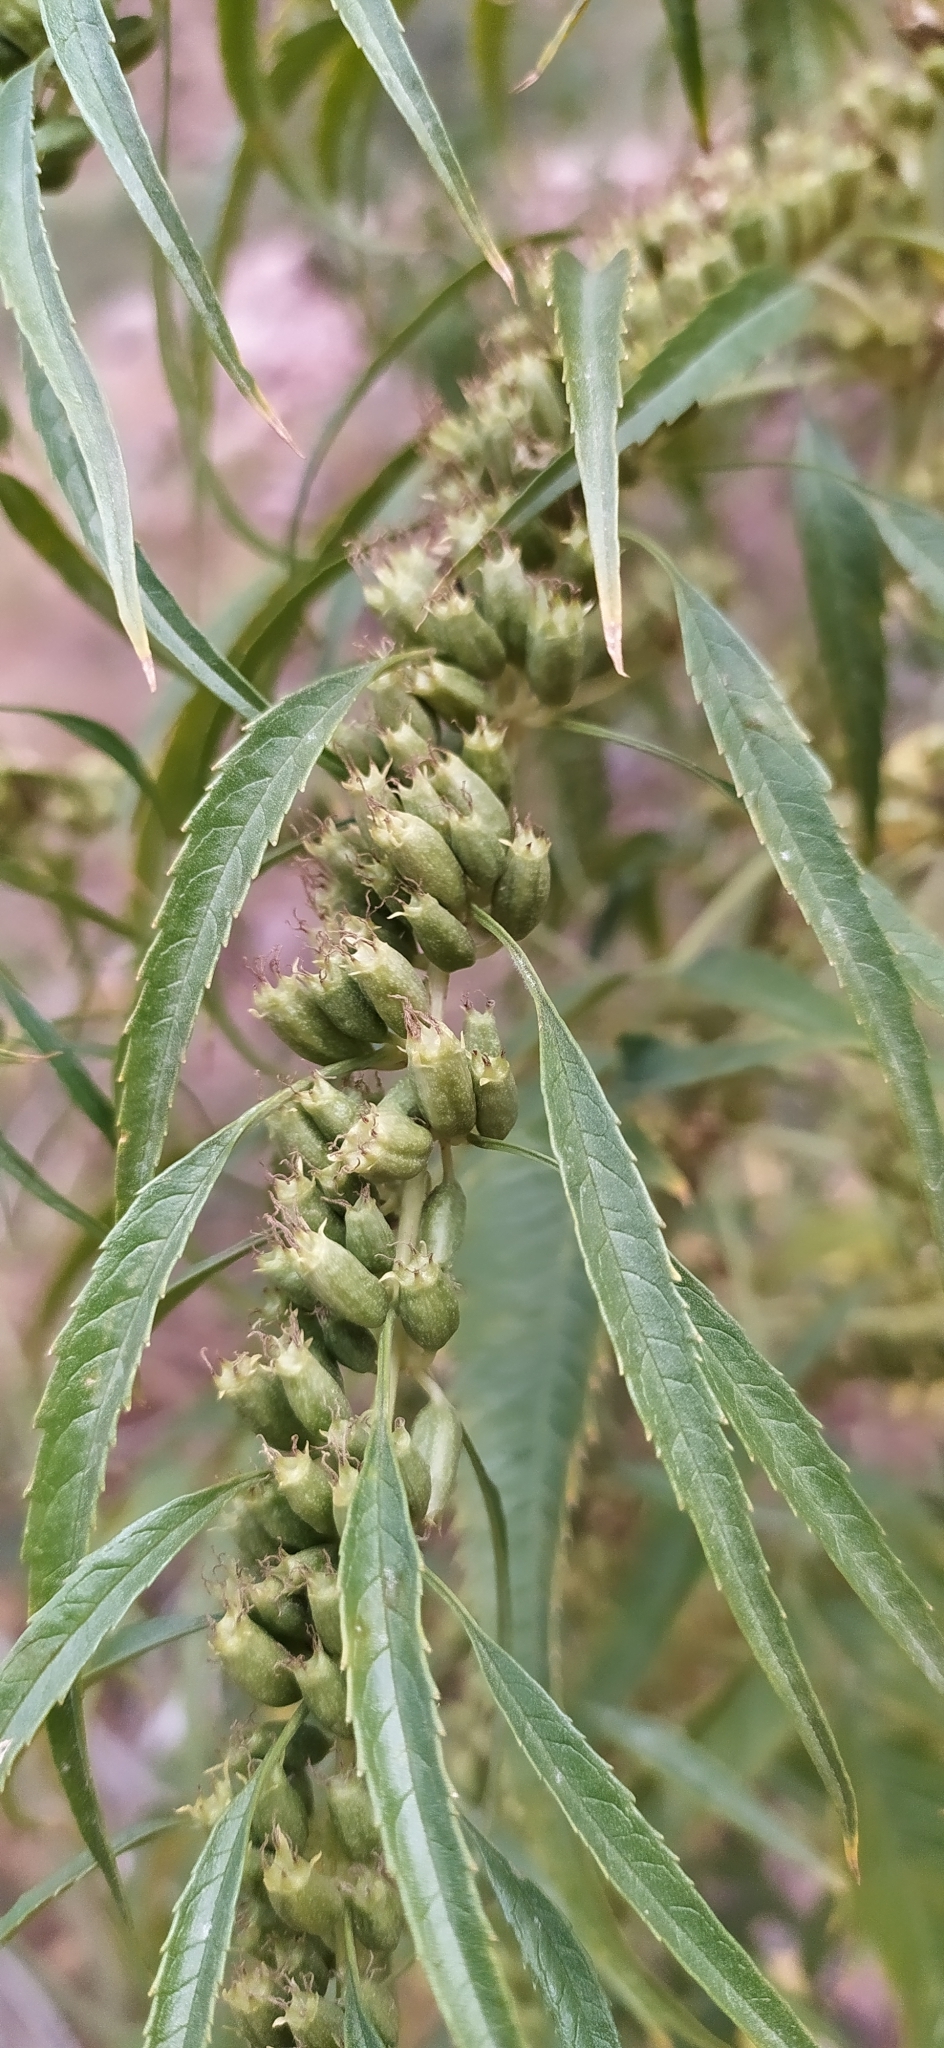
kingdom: Plantae
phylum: Tracheophyta
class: Magnoliopsida
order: Cucurbitales
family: Datiscaceae
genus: Datisca
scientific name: Datisca cannabina
